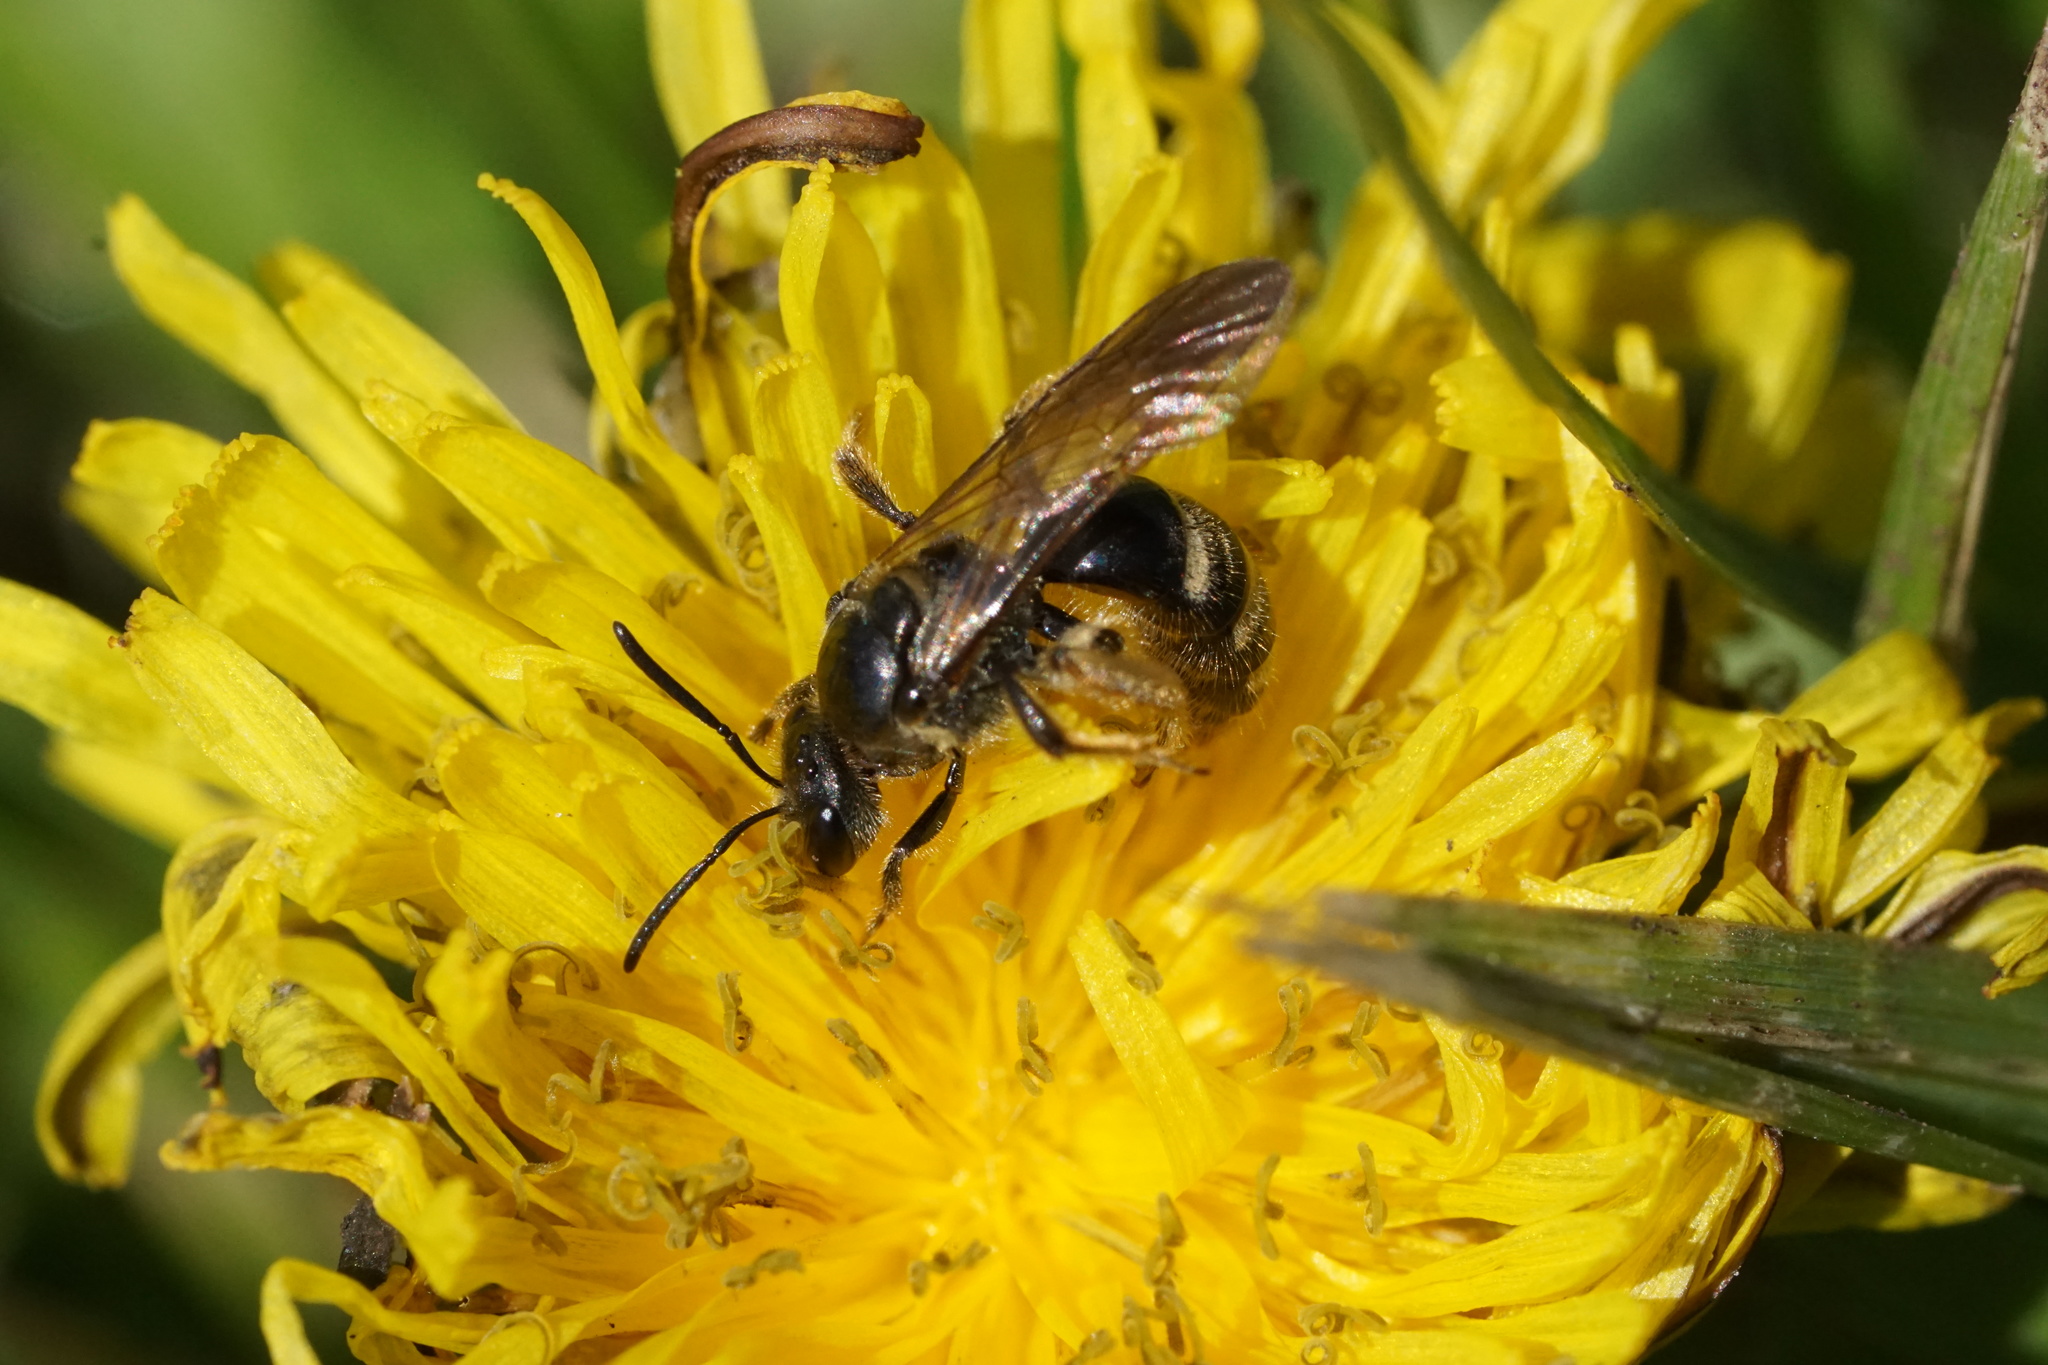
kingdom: Animalia
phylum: Arthropoda
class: Insecta
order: Hymenoptera
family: Halictidae
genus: Lasioglossum
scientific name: Lasioglossum fuscipenne
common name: Brown-winged sweat bee
